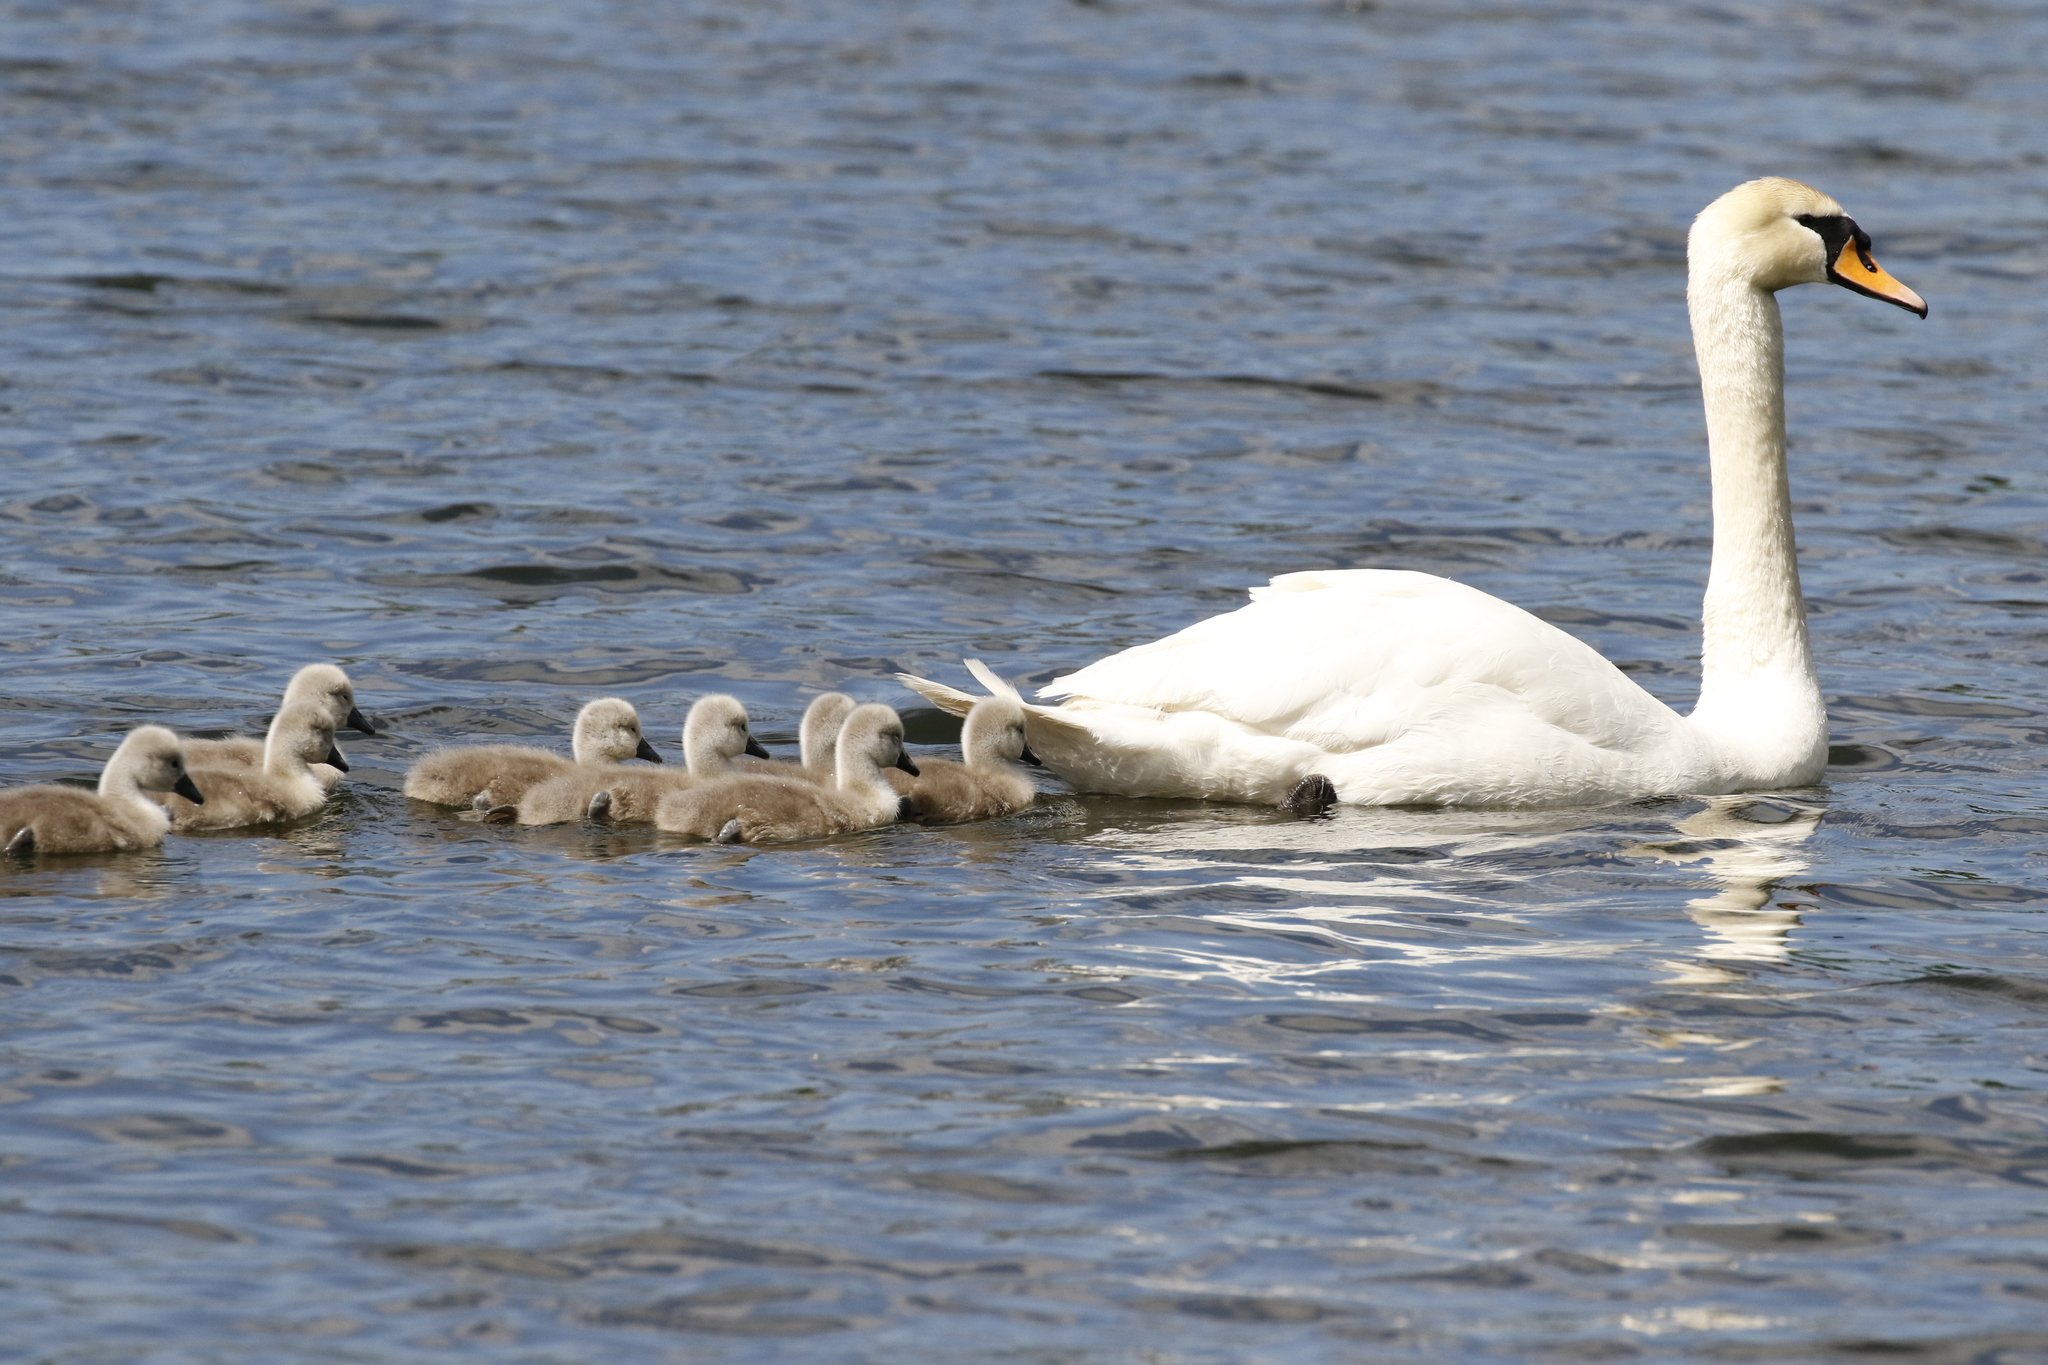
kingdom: Animalia
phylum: Chordata
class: Aves
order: Anseriformes
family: Anatidae
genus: Cygnus
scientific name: Cygnus olor
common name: Mute swan
